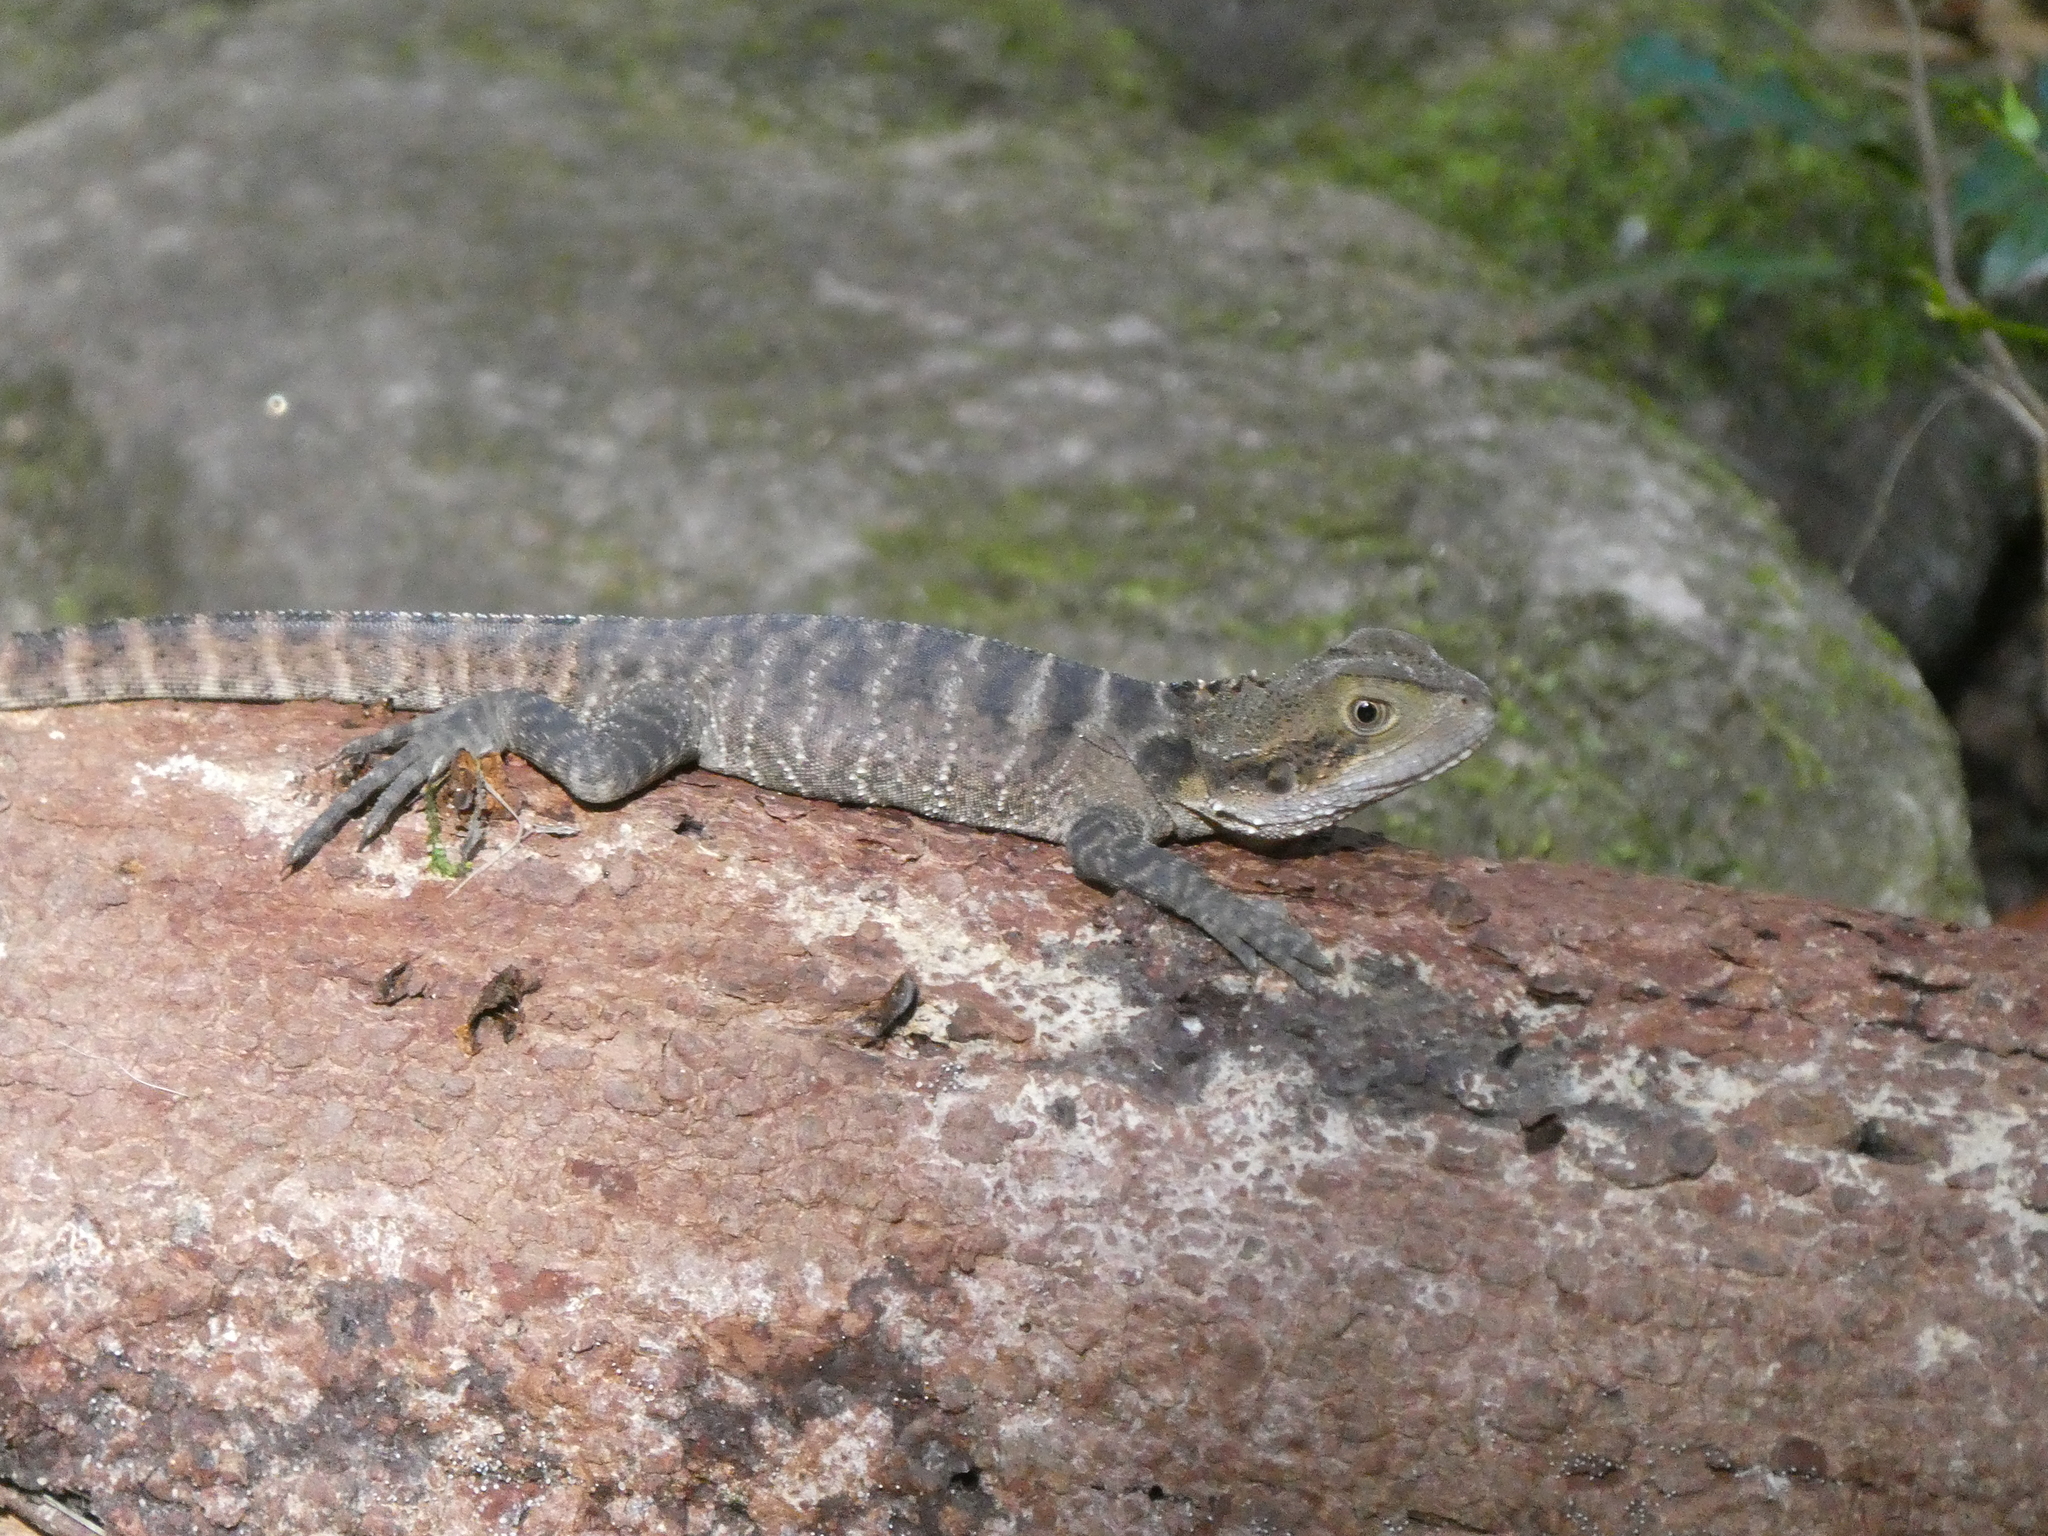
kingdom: Animalia
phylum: Chordata
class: Squamata
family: Agamidae
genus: Intellagama
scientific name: Intellagama lesueurii
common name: Eastern water dragon
